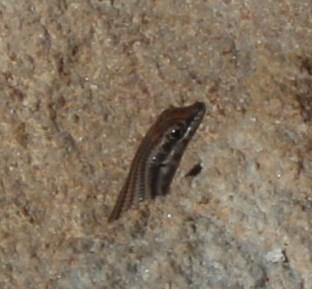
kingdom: Animalia
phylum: Chordata
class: Squamata
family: Scincidae
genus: Trachylepis
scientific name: Trachylepis sulcata
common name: Western rock skink
